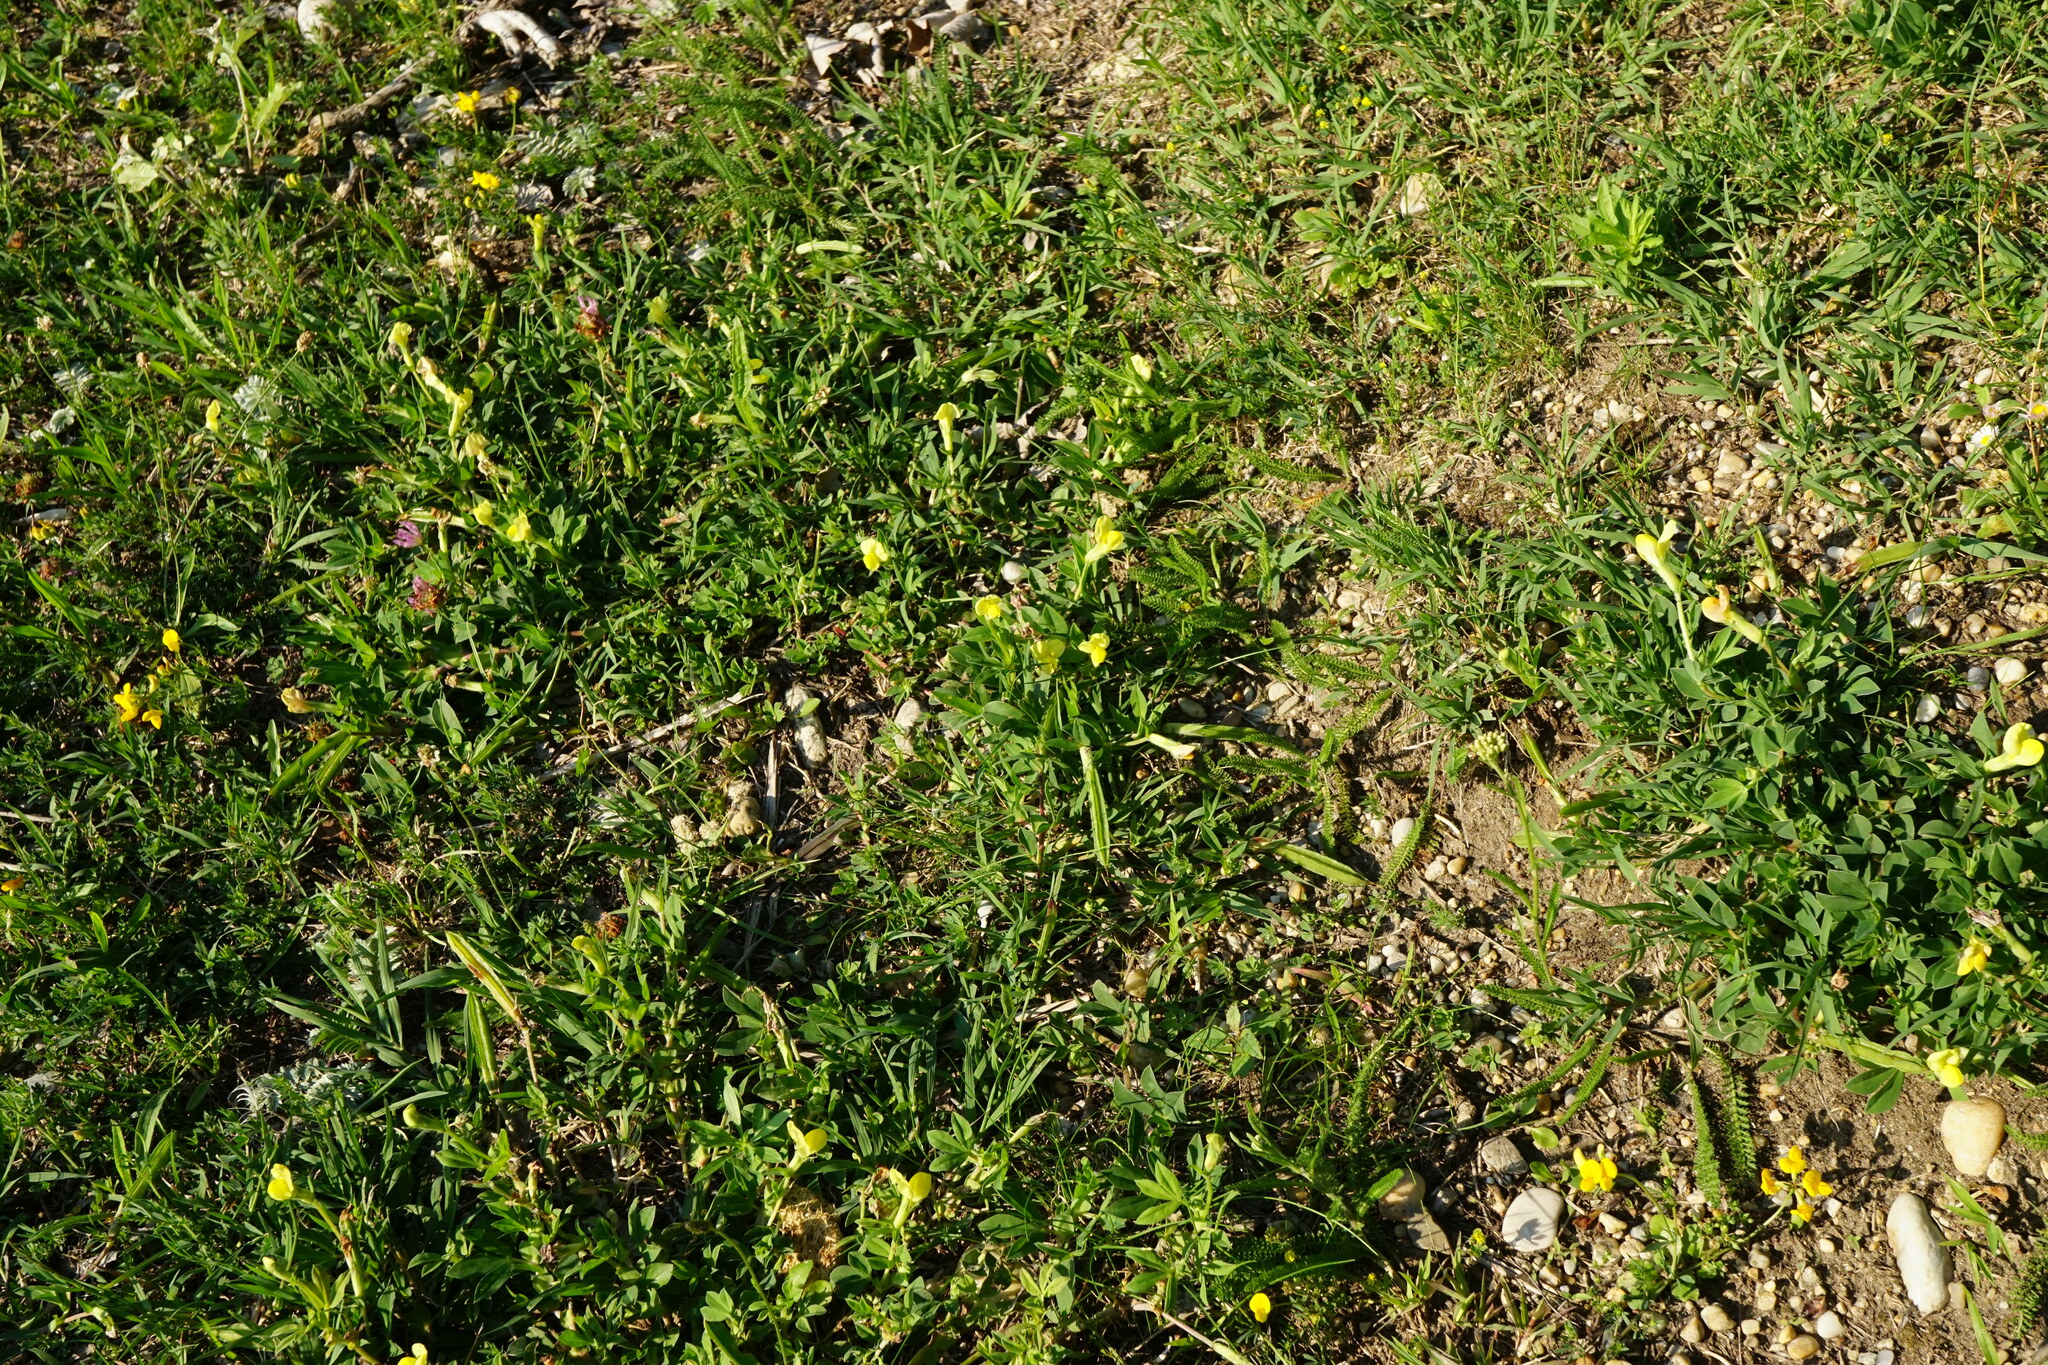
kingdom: Plantae
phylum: Tracheophyta
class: Magnoliopsida
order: Fabales
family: Fabaceae
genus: Lotus
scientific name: Lotus maritimus
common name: Dragon's-teeth
